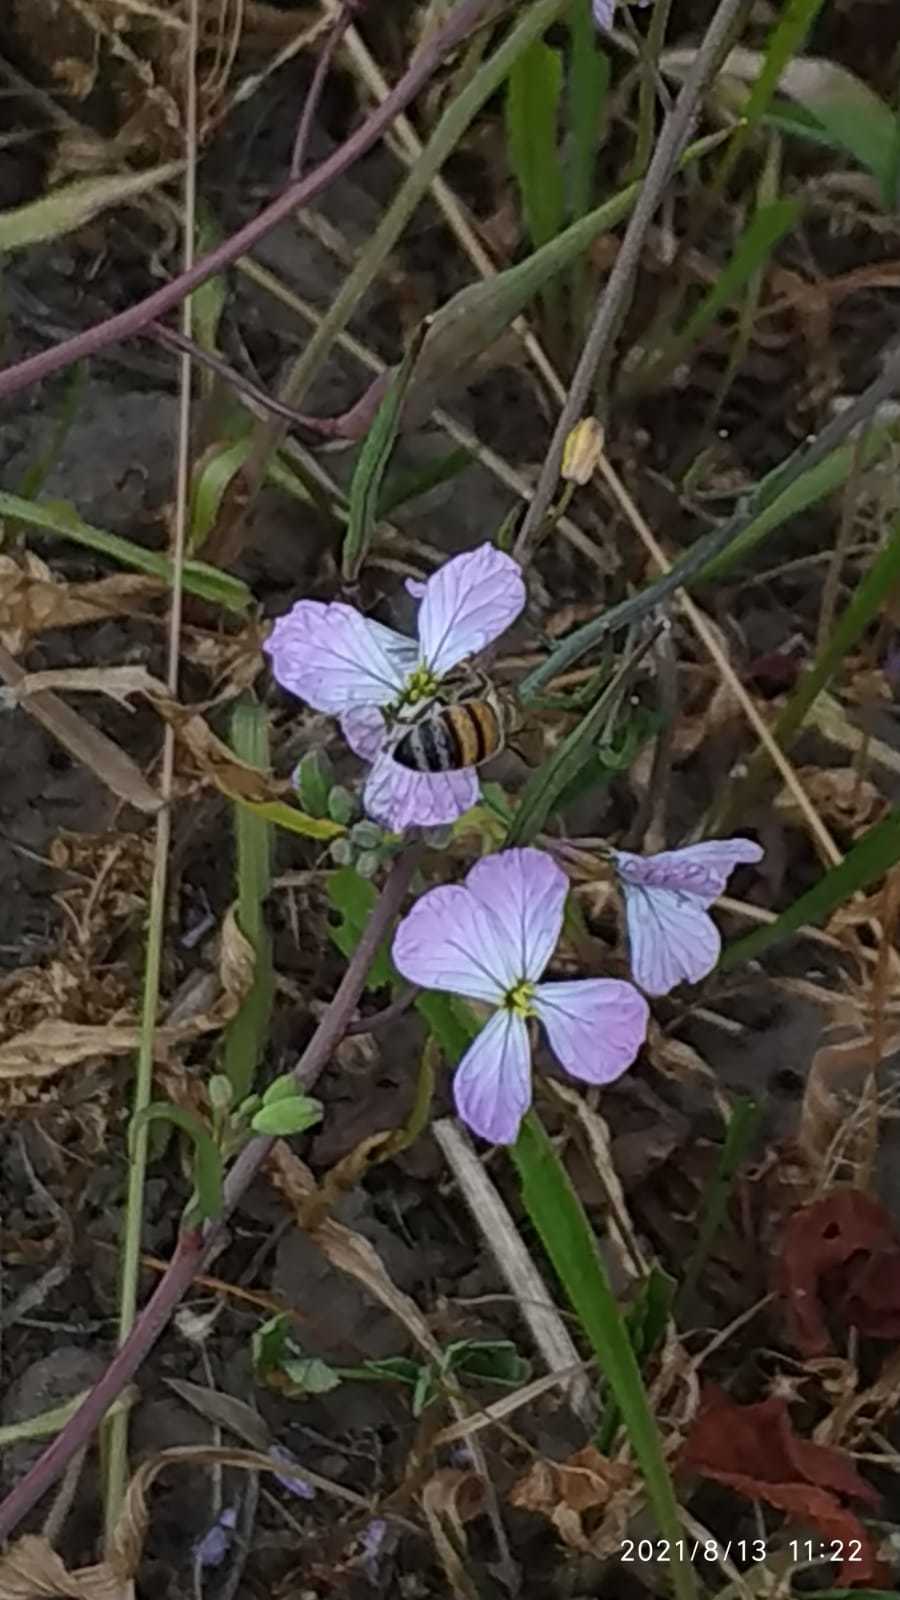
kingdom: Animalia
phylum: Arthropoda
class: Insecta
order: Hymenoptera
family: Apidae
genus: Apis
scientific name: Apis mellifera
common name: Honey bee
